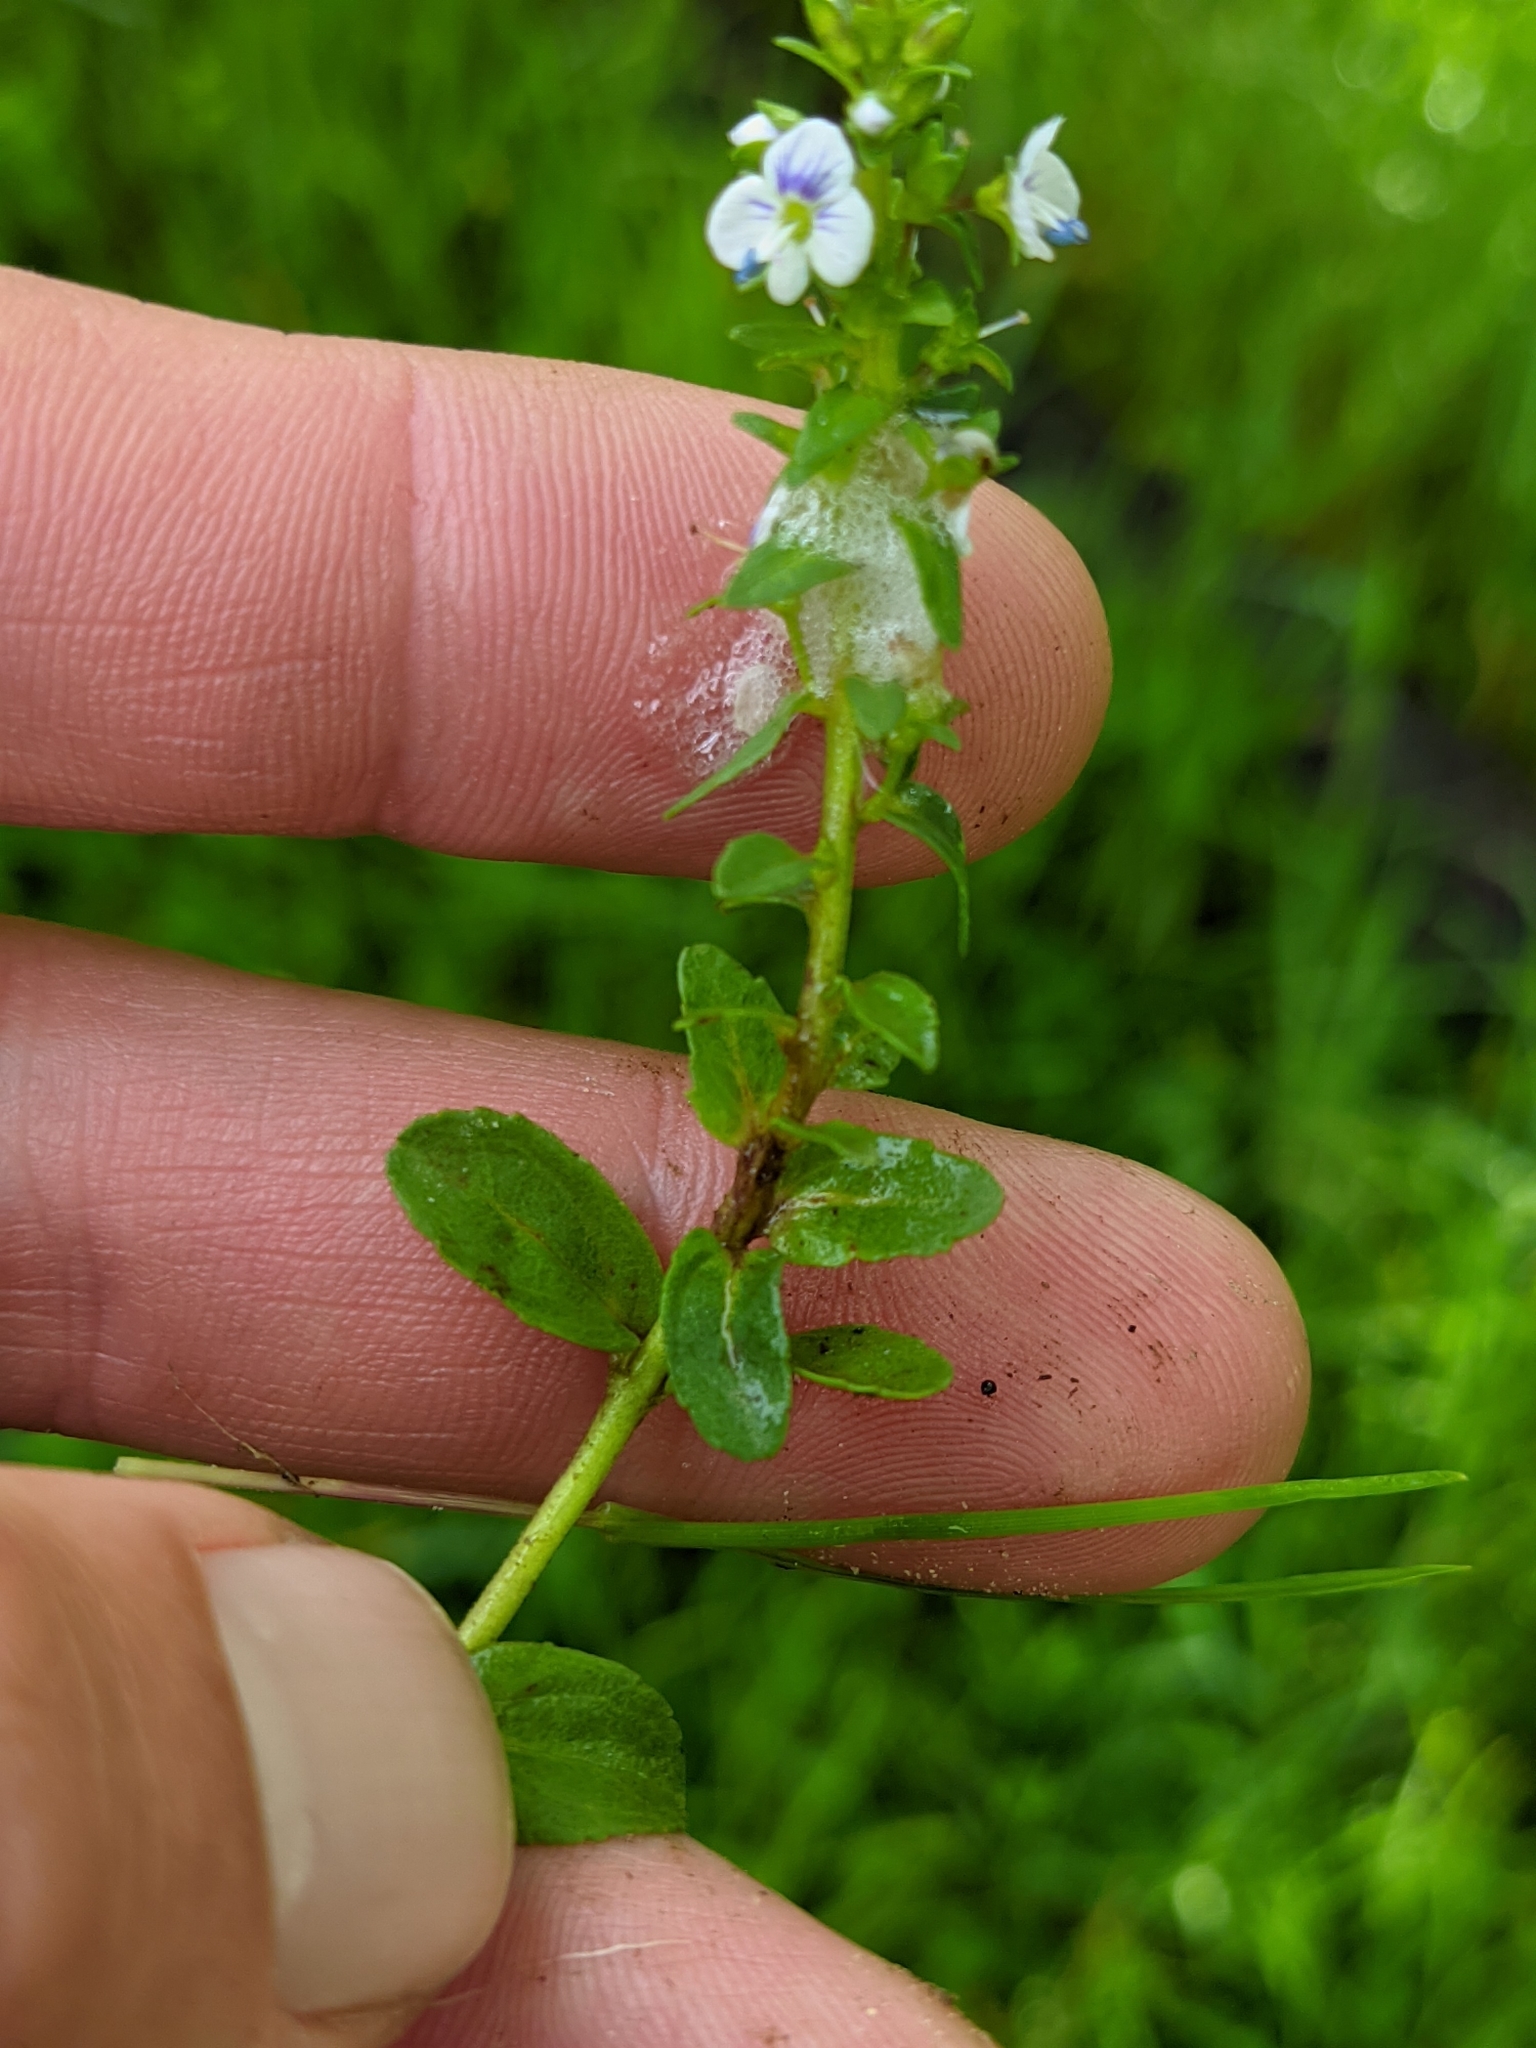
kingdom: Plantae
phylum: Tracheophyta
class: Magnoliopsida
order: Lamiales
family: Plantaginaceae
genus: Veronica
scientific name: Veronica serpyllifolia
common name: Thyme-leaved speedwell
